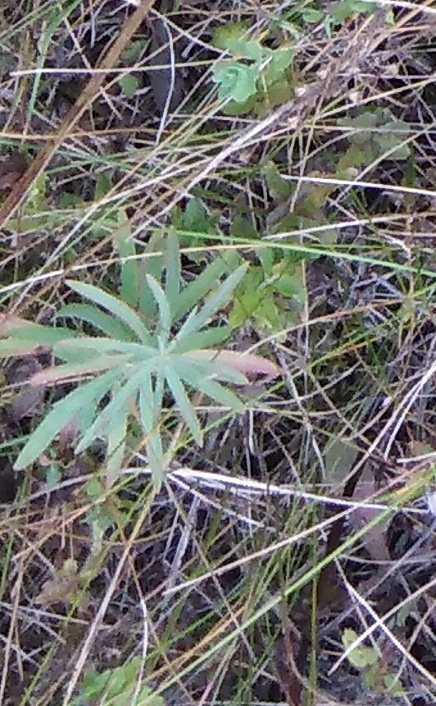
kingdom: Plantae
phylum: Tracheophyta
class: Magnoliopsida
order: Lamiales
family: Plantaginaceae
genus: Linaria
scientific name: Linaria vulgaris
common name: Butter and eggs
